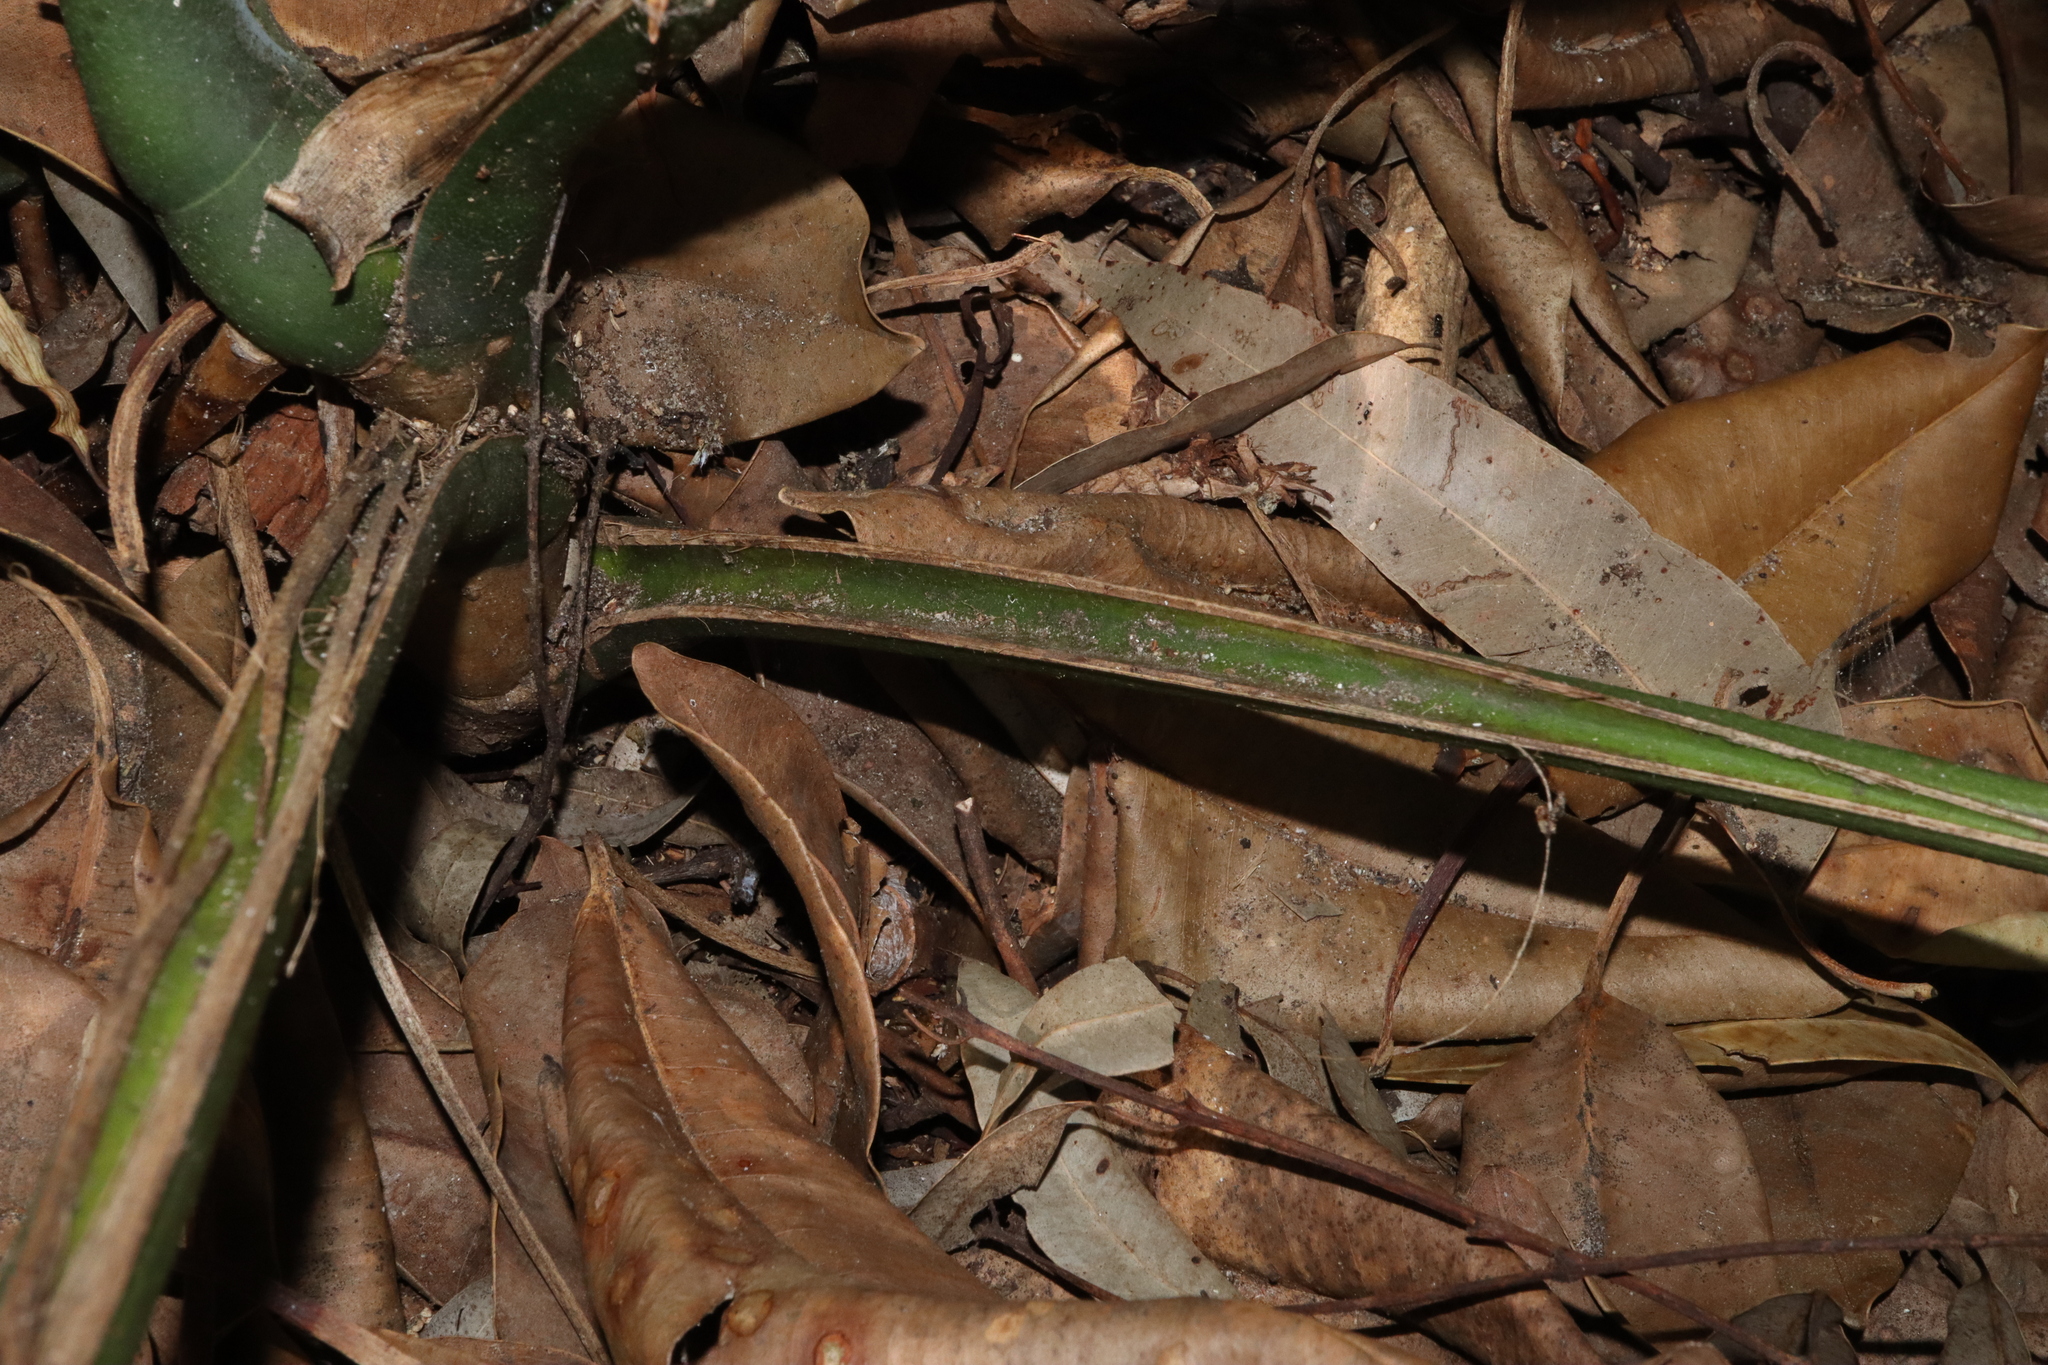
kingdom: Plantae
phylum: Tracheophyta
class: Liliopsida
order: Alismatales
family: Araceae
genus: Monstera
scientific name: Monstera deliciosa
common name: Cut-leaf-philodendron
